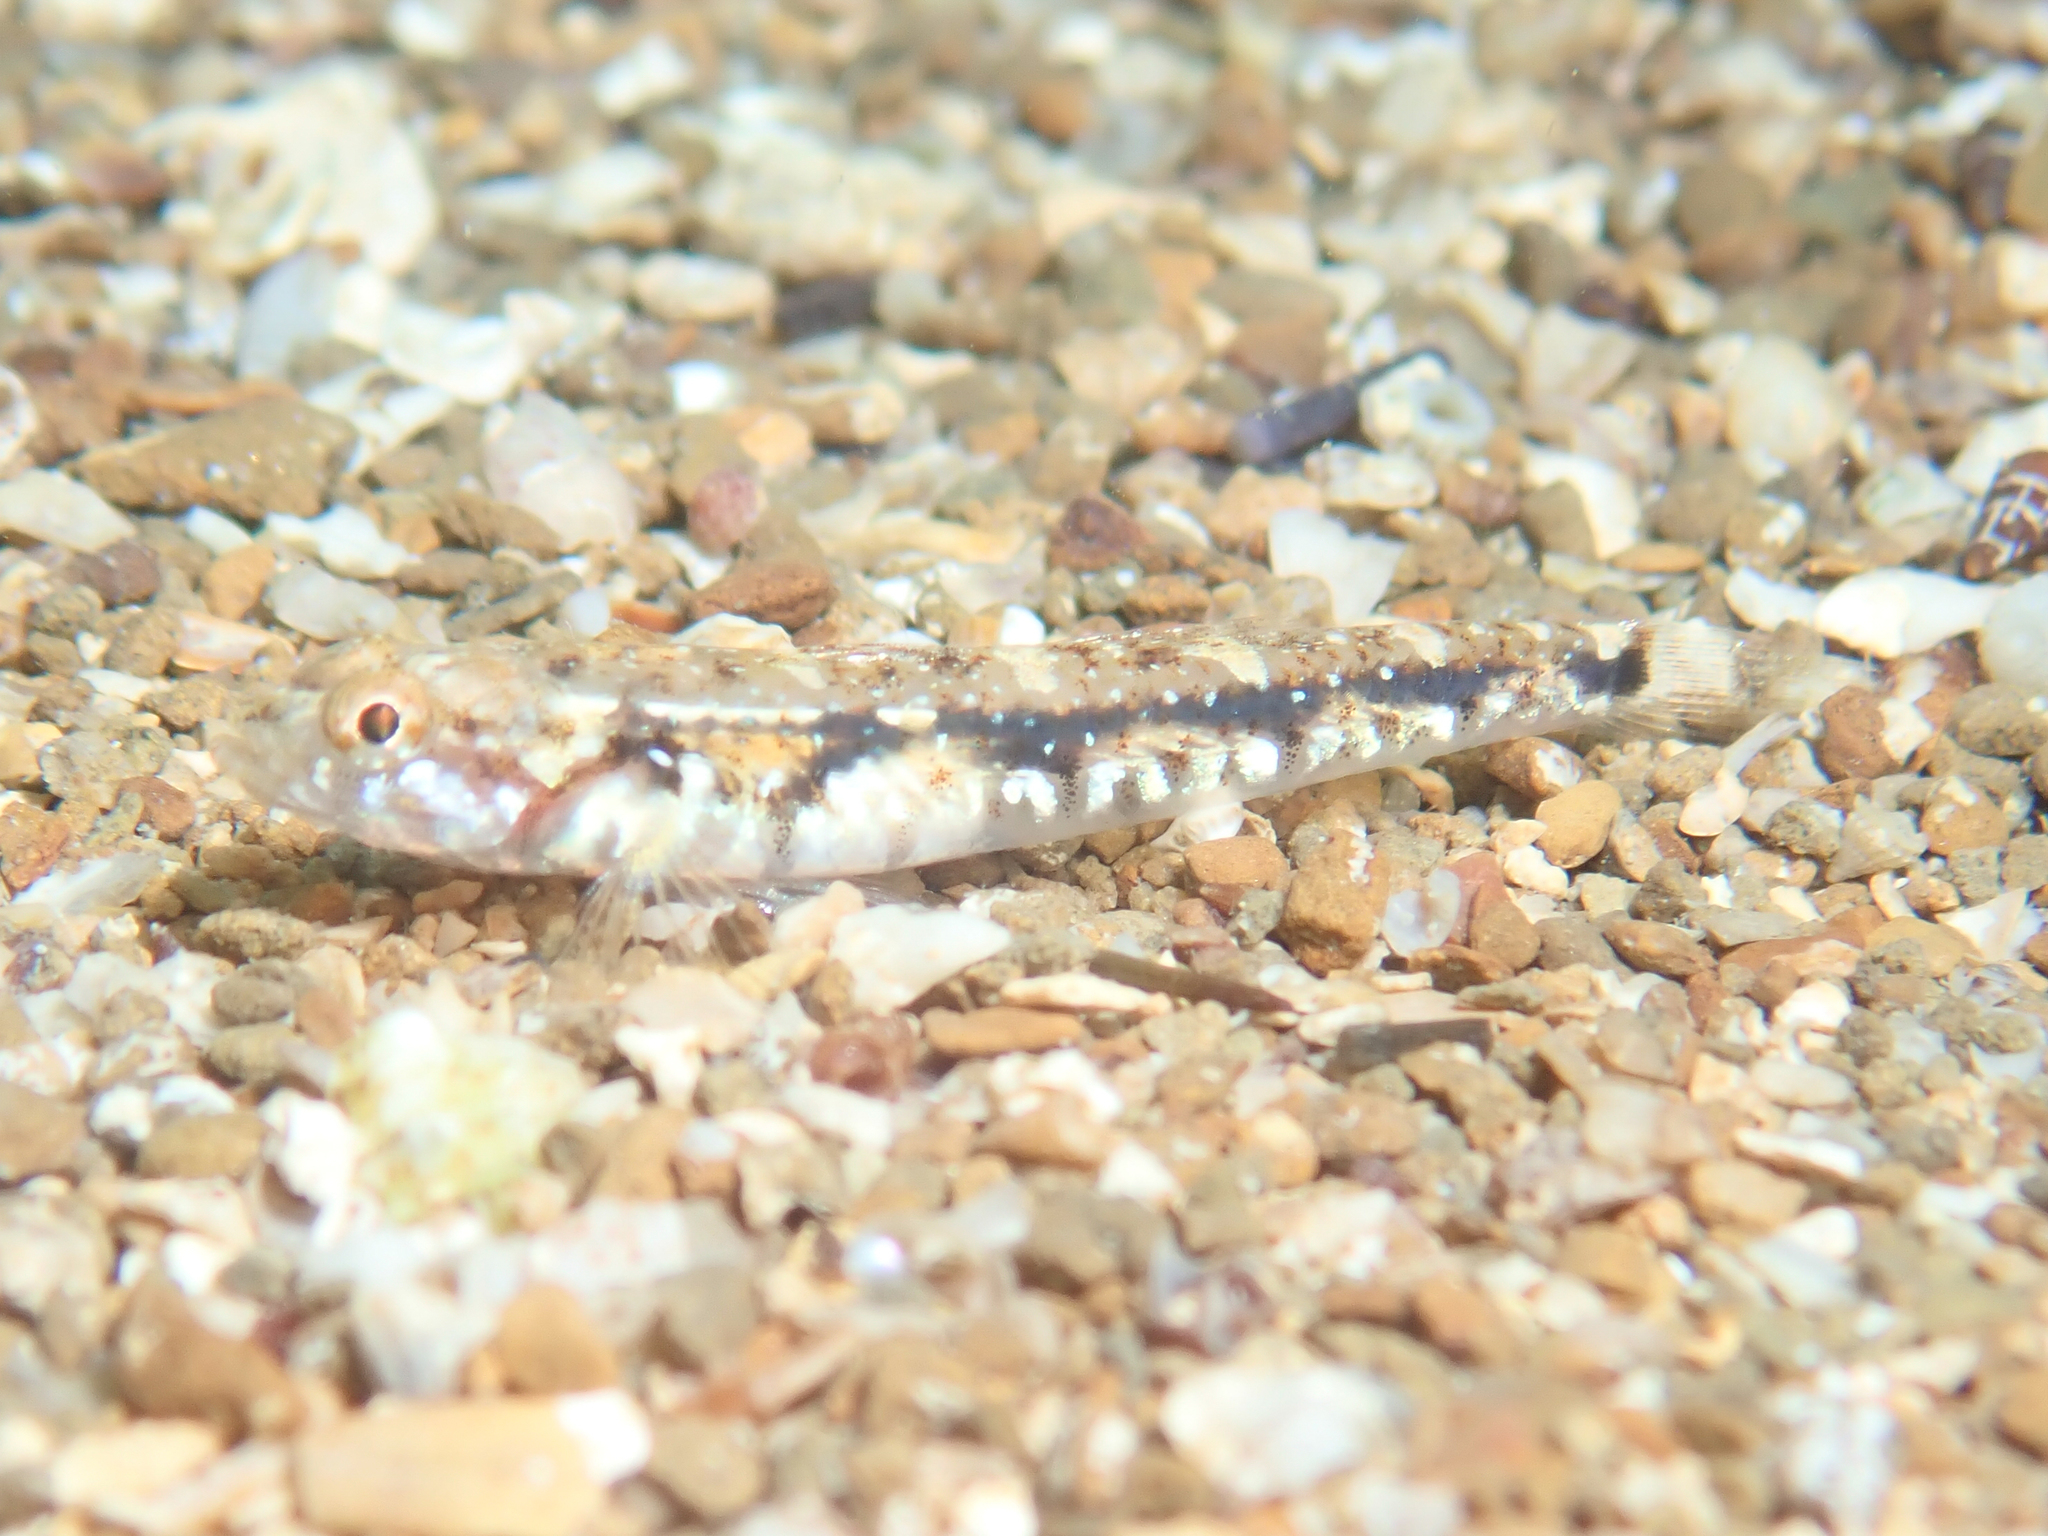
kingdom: Animalia
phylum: Chordata
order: Perciformes
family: Gobiidae
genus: Pomatoschistus
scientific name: Pomatoschistus bathi
